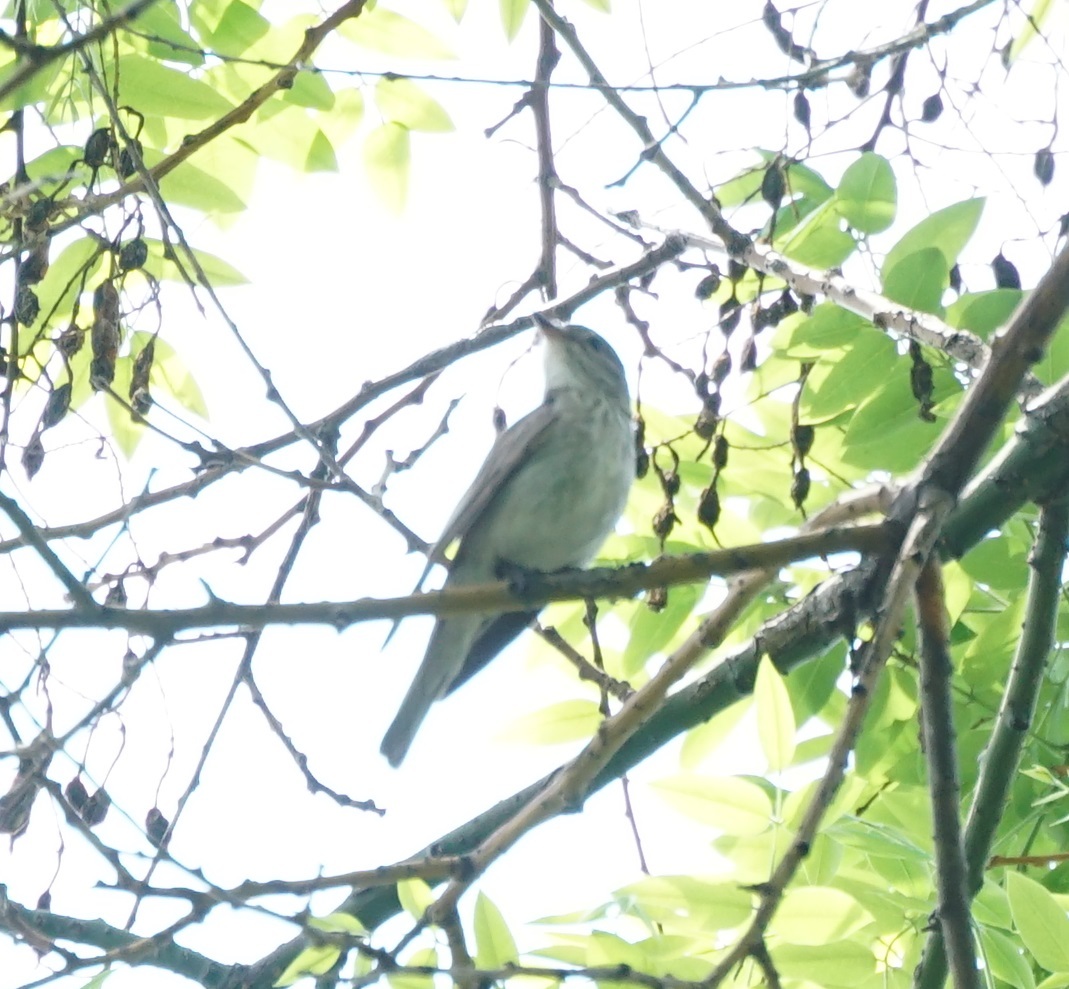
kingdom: Animalia
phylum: Chordata
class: Aves
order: Passeriformes
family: Muscicapidae
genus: Muscicapa
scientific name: Muscicapa striata
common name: Spotted flycatcher
